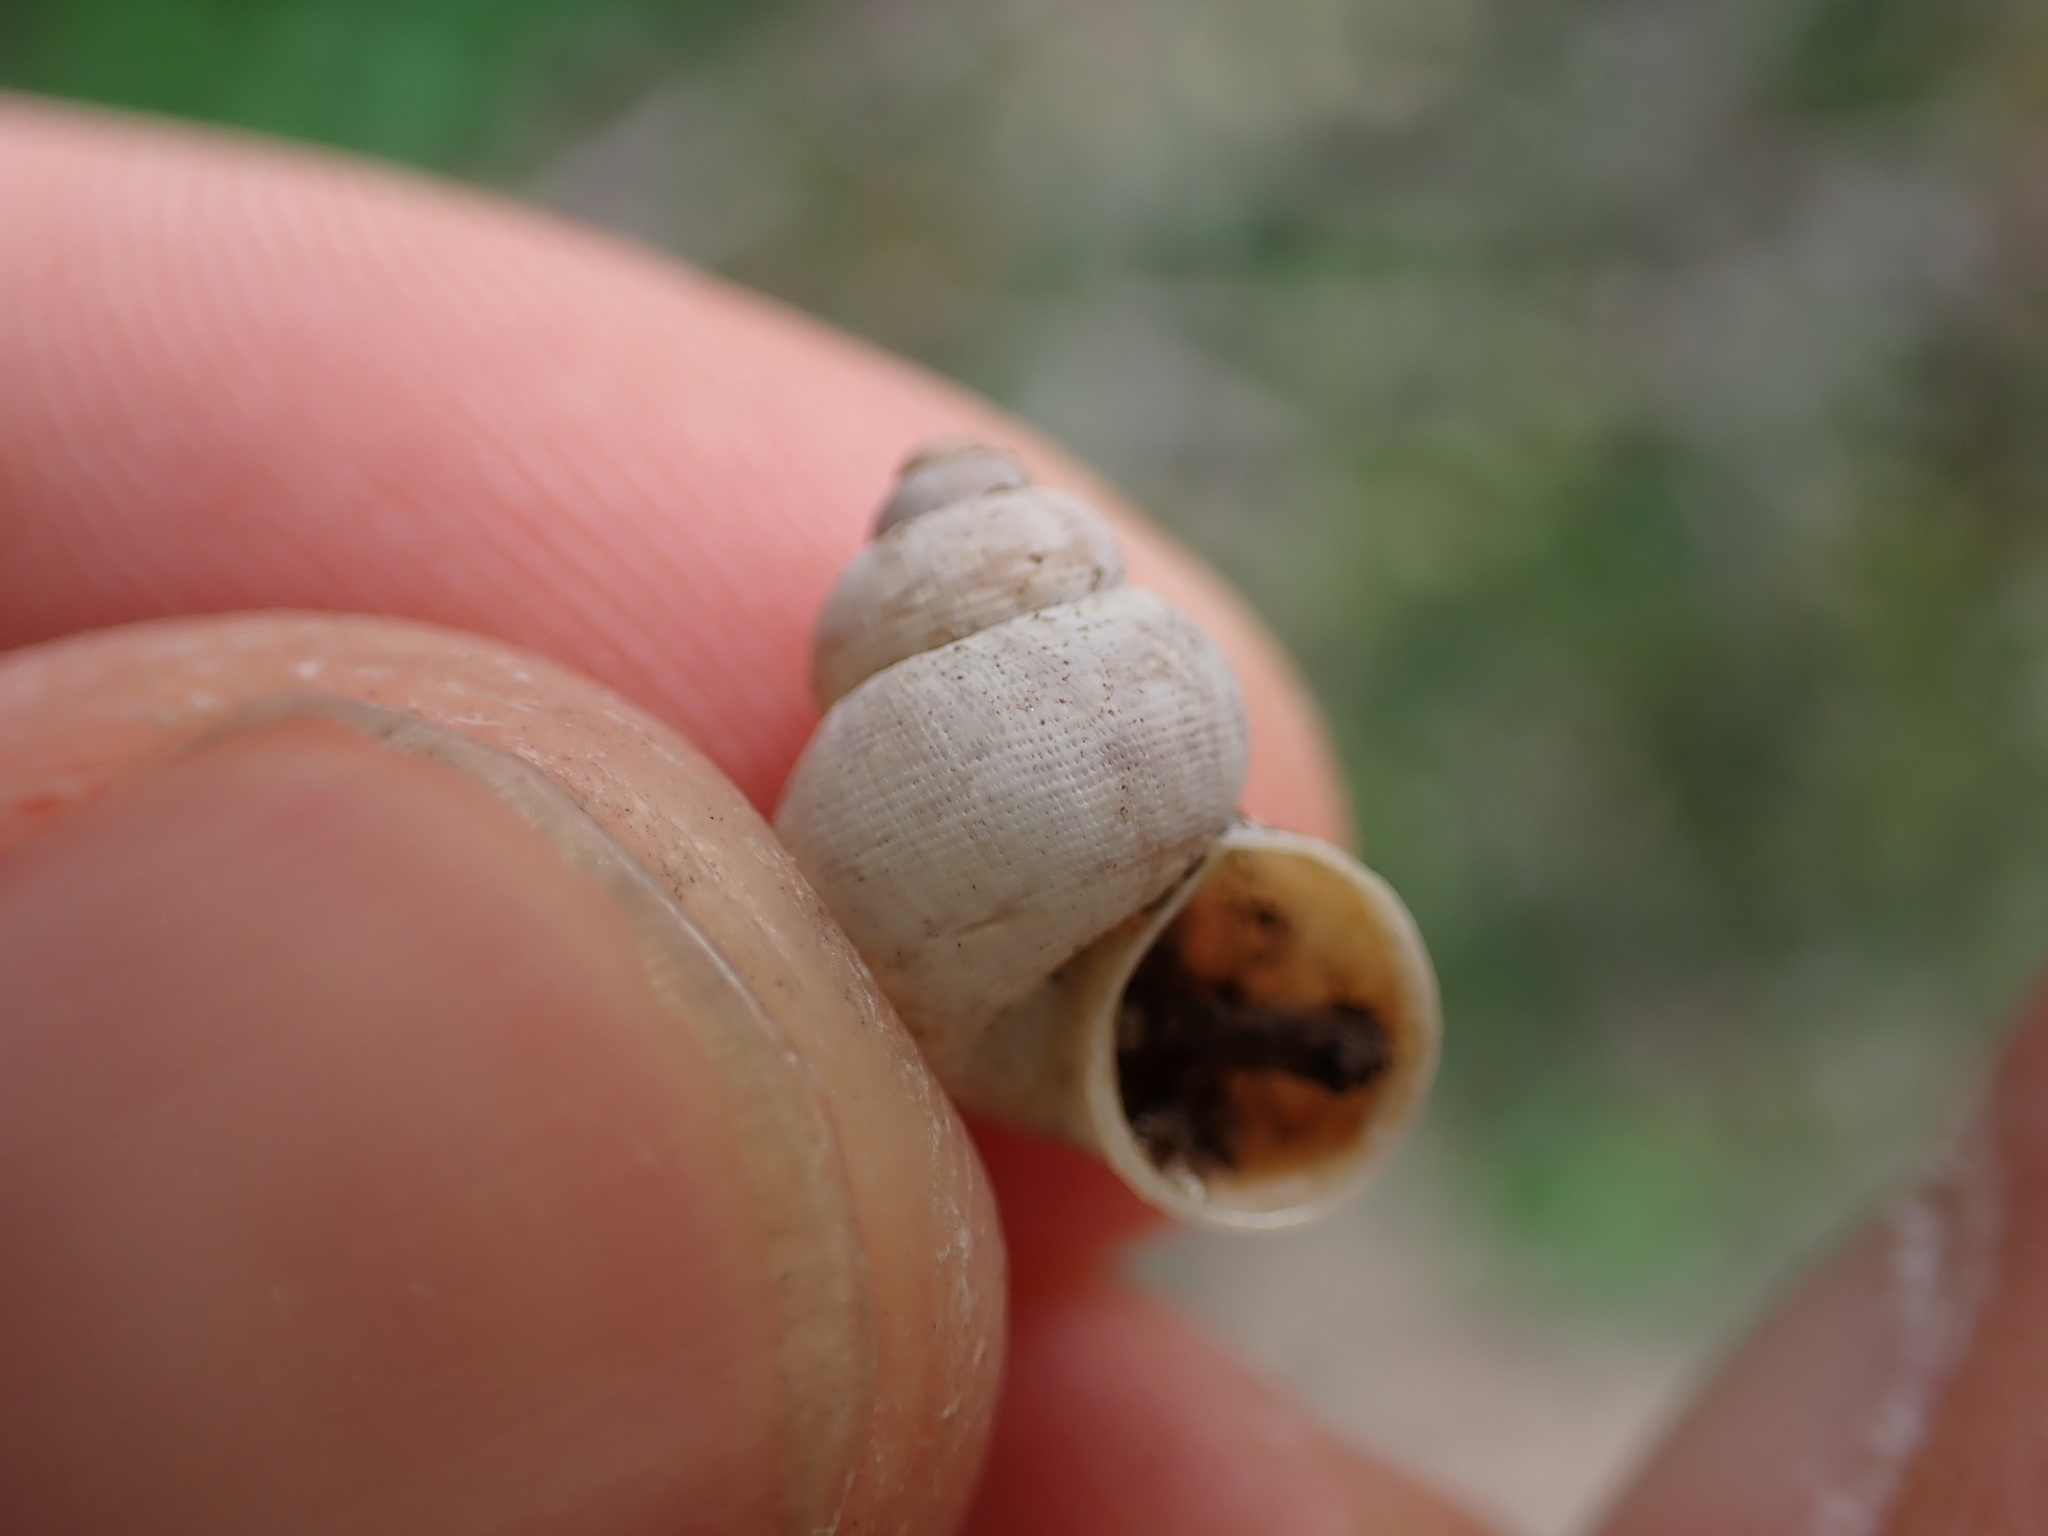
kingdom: Animalia
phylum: Mollusca
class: Gastropoda
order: Littorinimorpha
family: Pomatiidae
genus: Pomatias
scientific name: Pomatias elegans
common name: Red-mouthed snail
